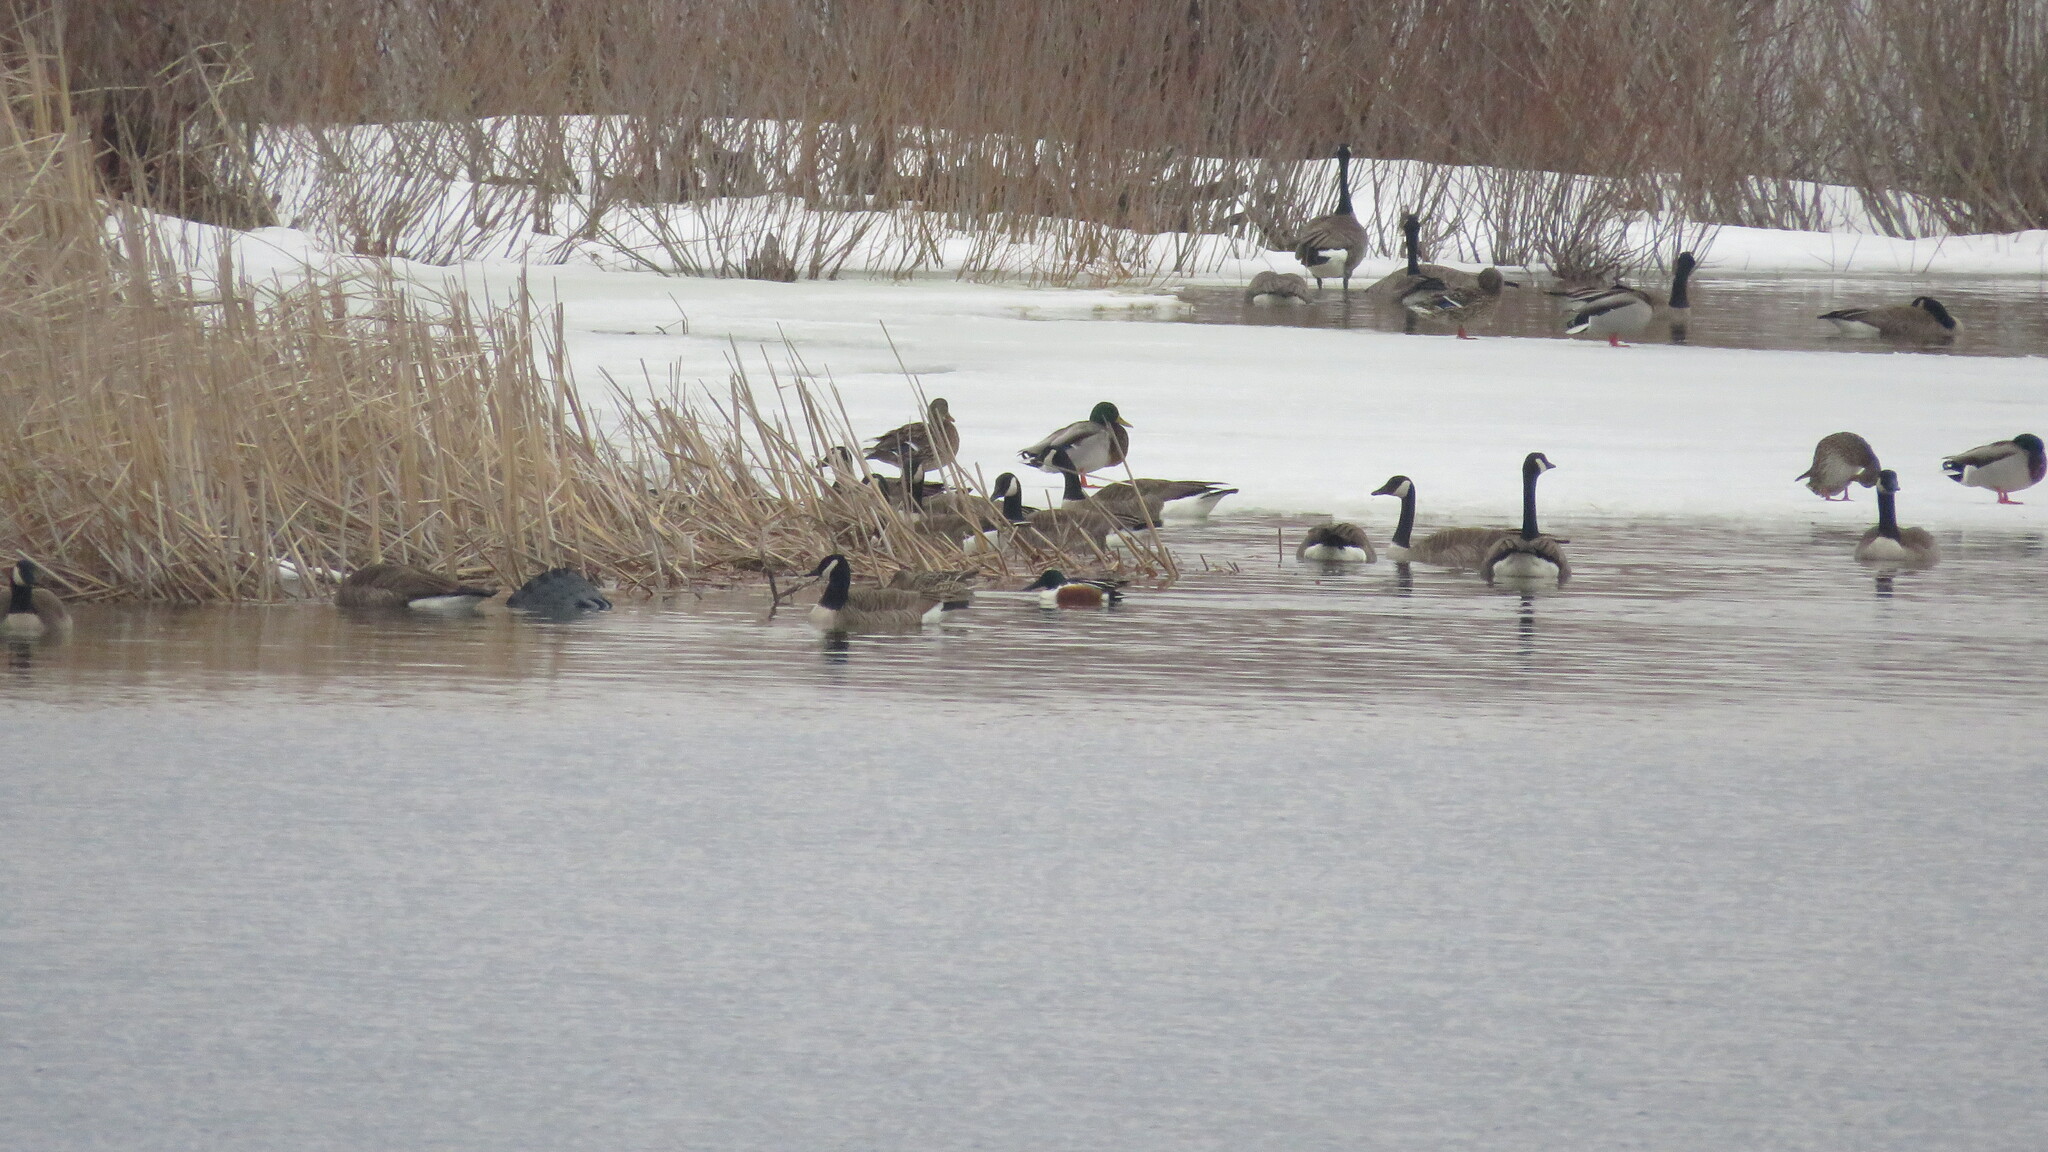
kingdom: Animalia
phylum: Chordata
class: Aves
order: Anseriformes
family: Anatidae
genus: Spatula
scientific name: Spatula clypeata
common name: Northern shoveler
